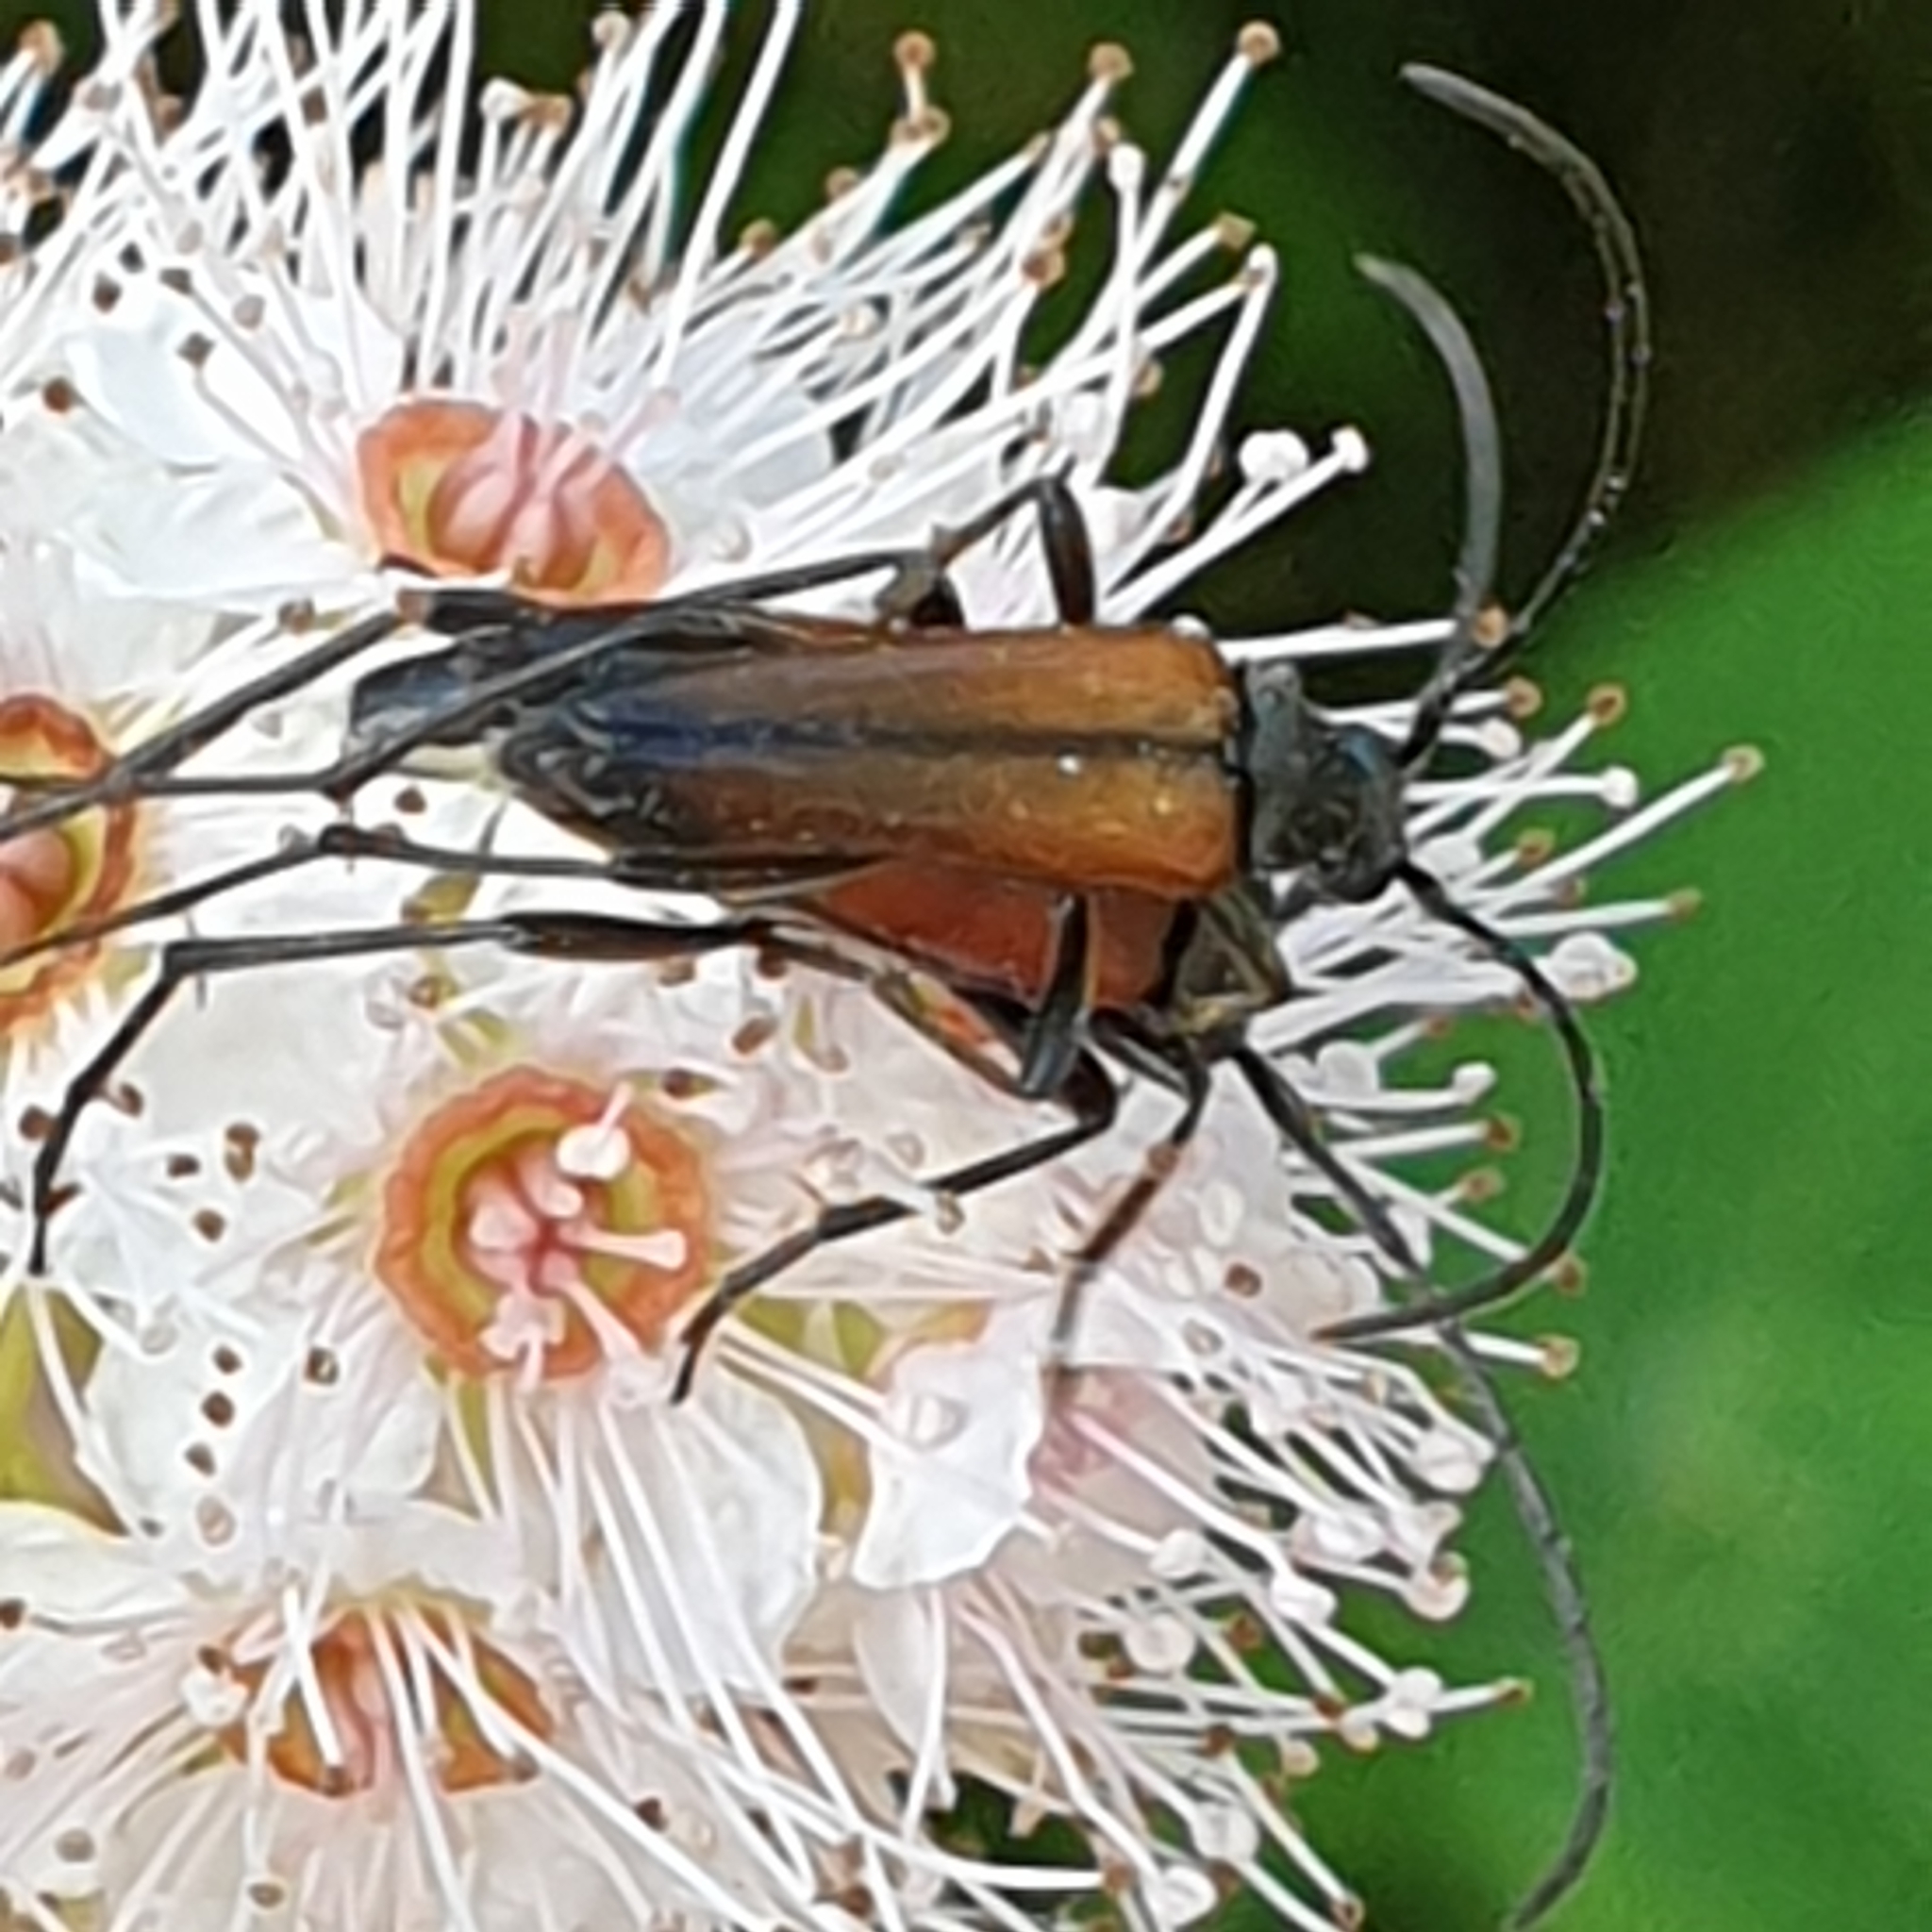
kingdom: Animalia
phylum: Arthropoda
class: Insecta
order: Coleoptera
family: Cerambycidae
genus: Stenurella
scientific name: Stenurella melanura
